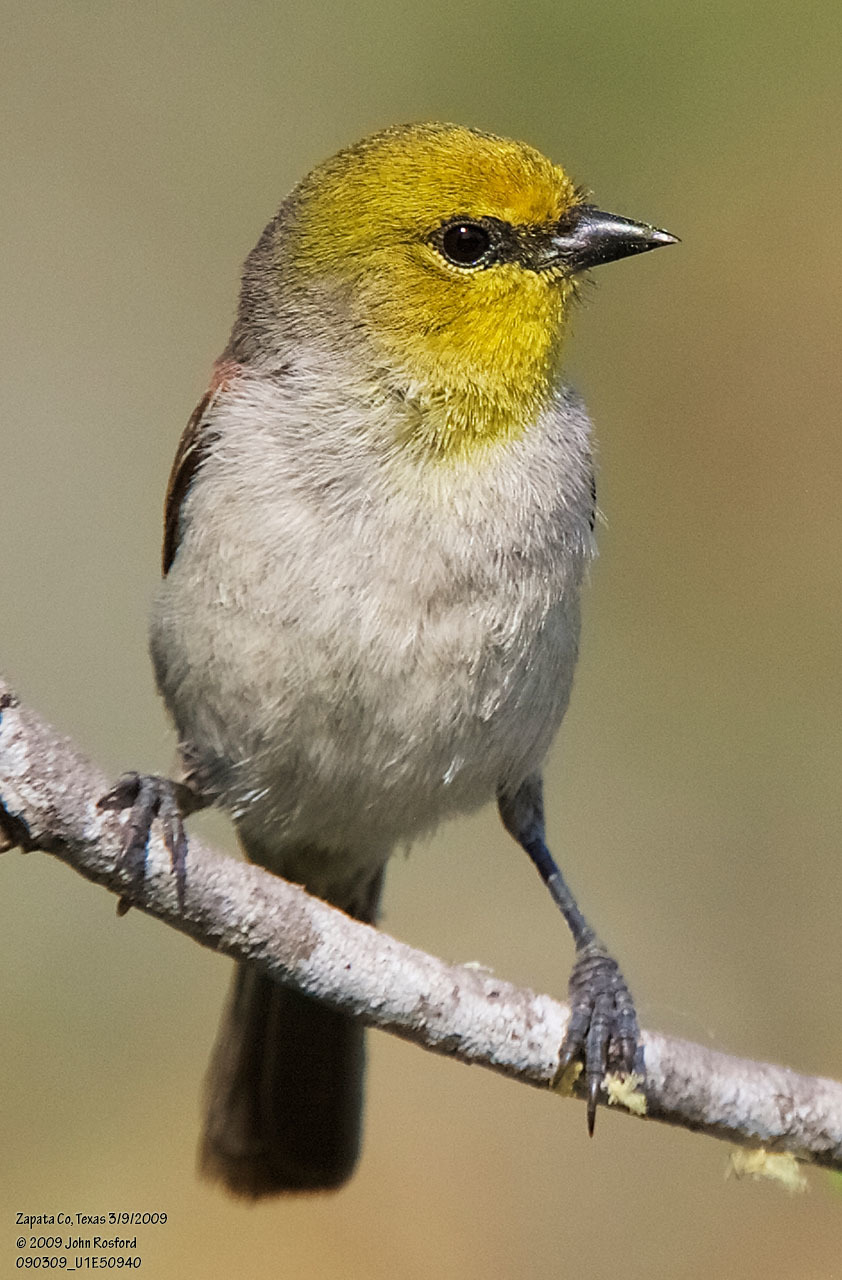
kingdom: Animalia
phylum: Chordata
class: Aves
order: Passeriformes
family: Remizidae
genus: Auriparus
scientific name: Auriparus flaviceps
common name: Verdin
